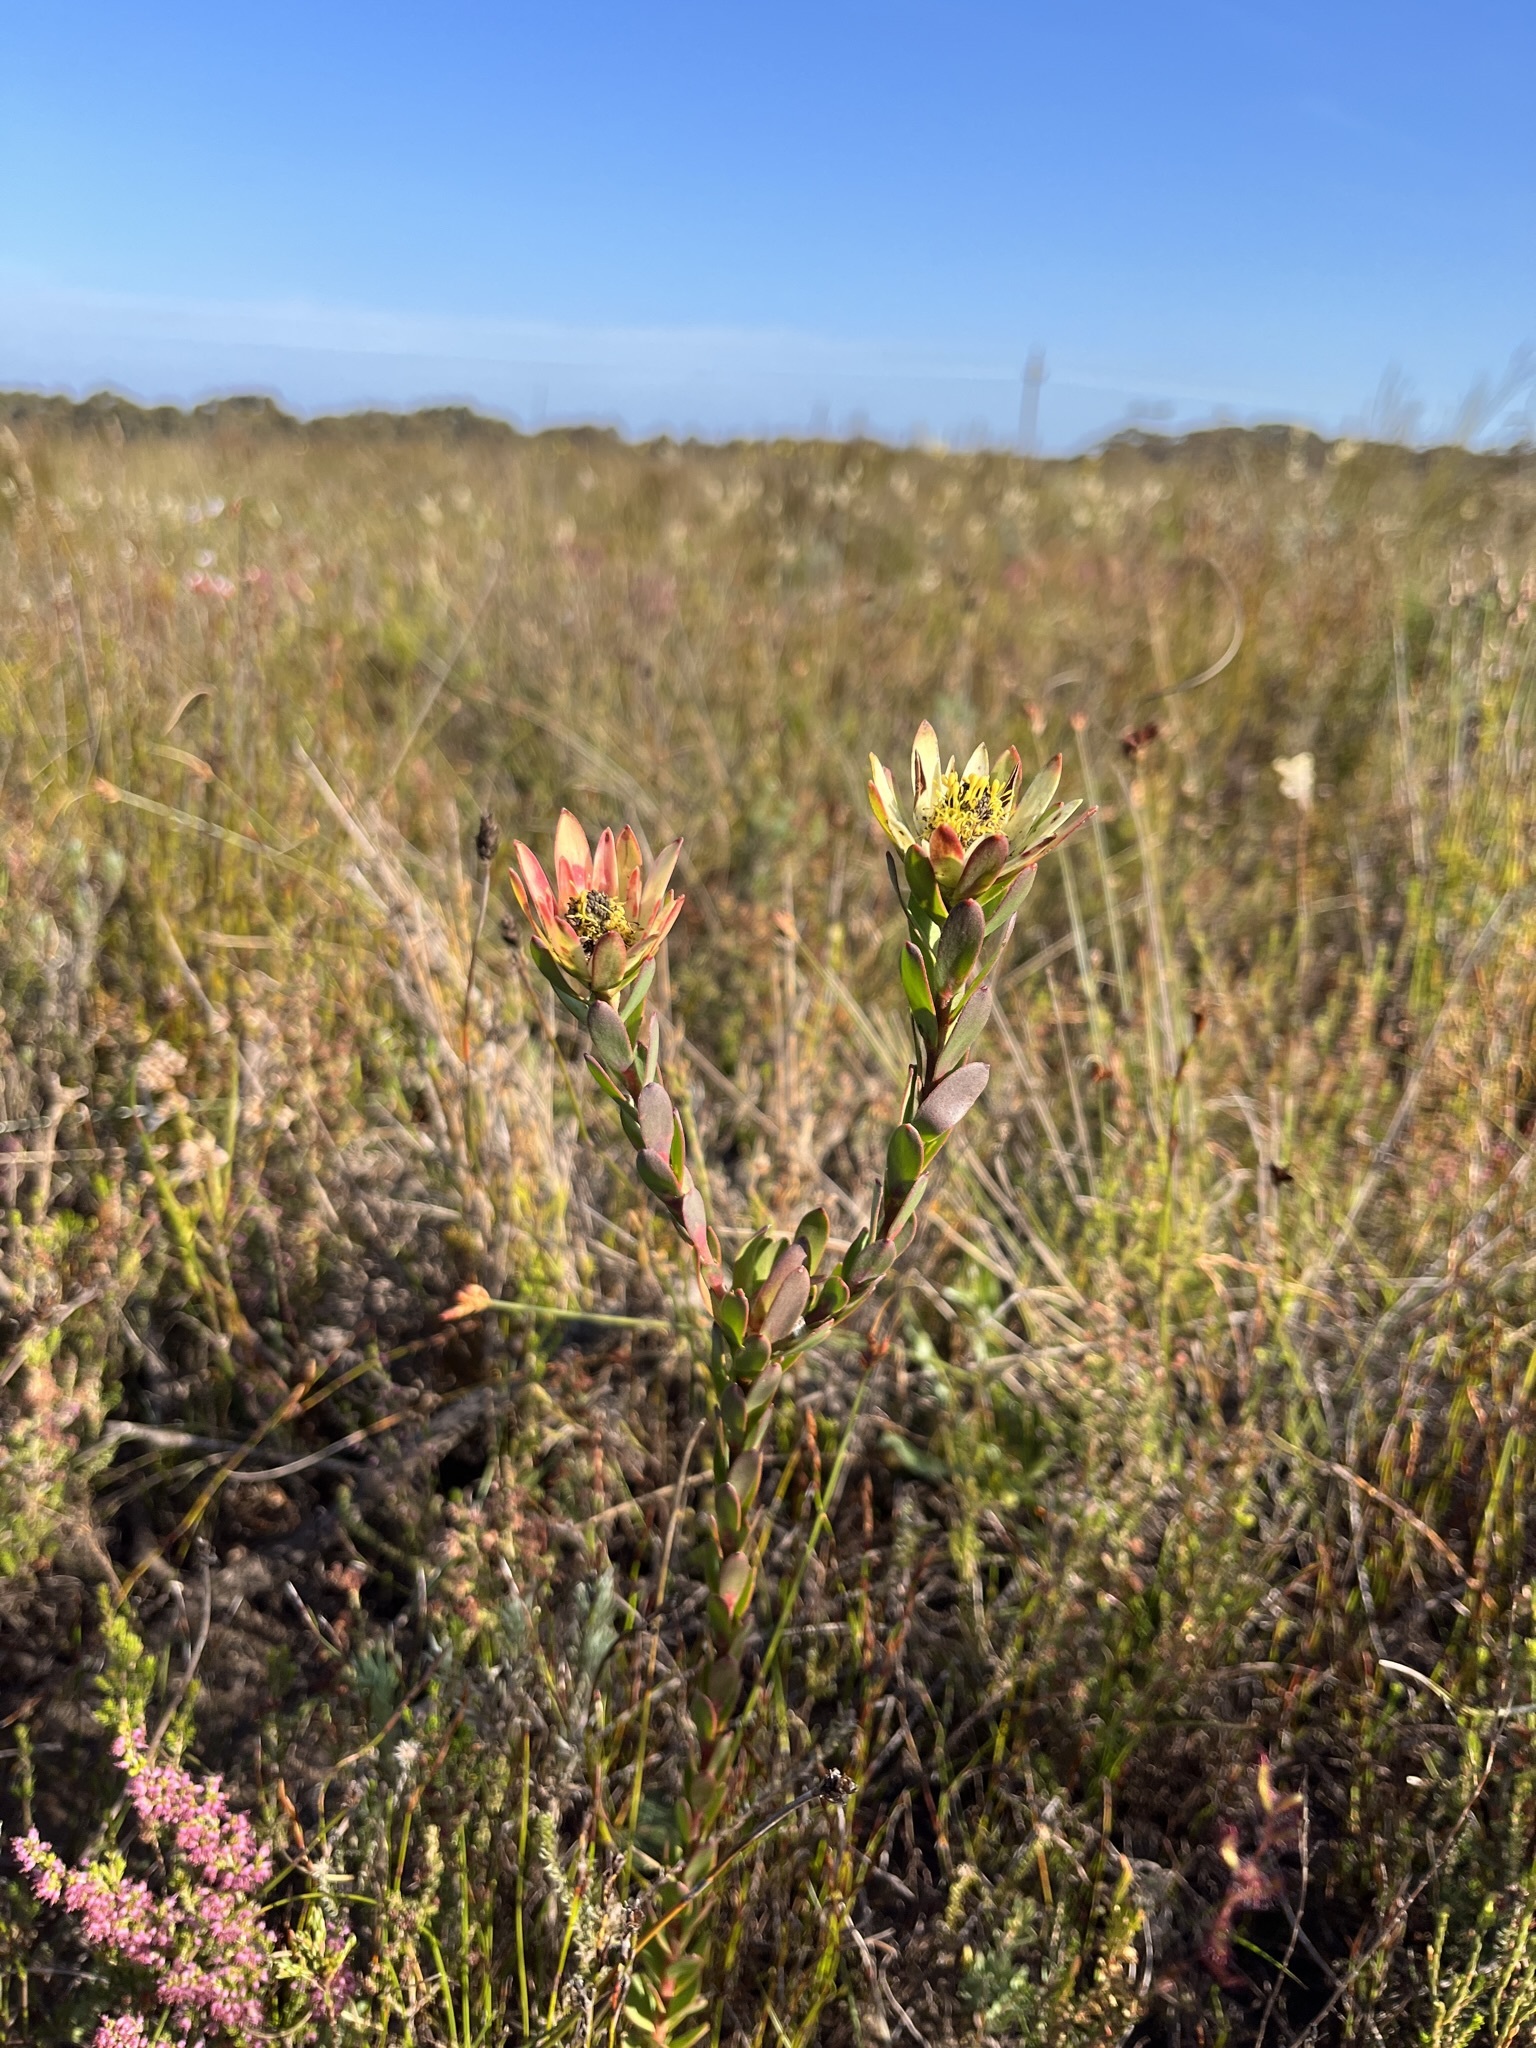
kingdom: Plantae
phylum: Tracheophyta
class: Magnoliopsida
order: Proteales
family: Proteaceae
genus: Leucadendron
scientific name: Leucadendron modestum
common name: Rough-leaf conebush
